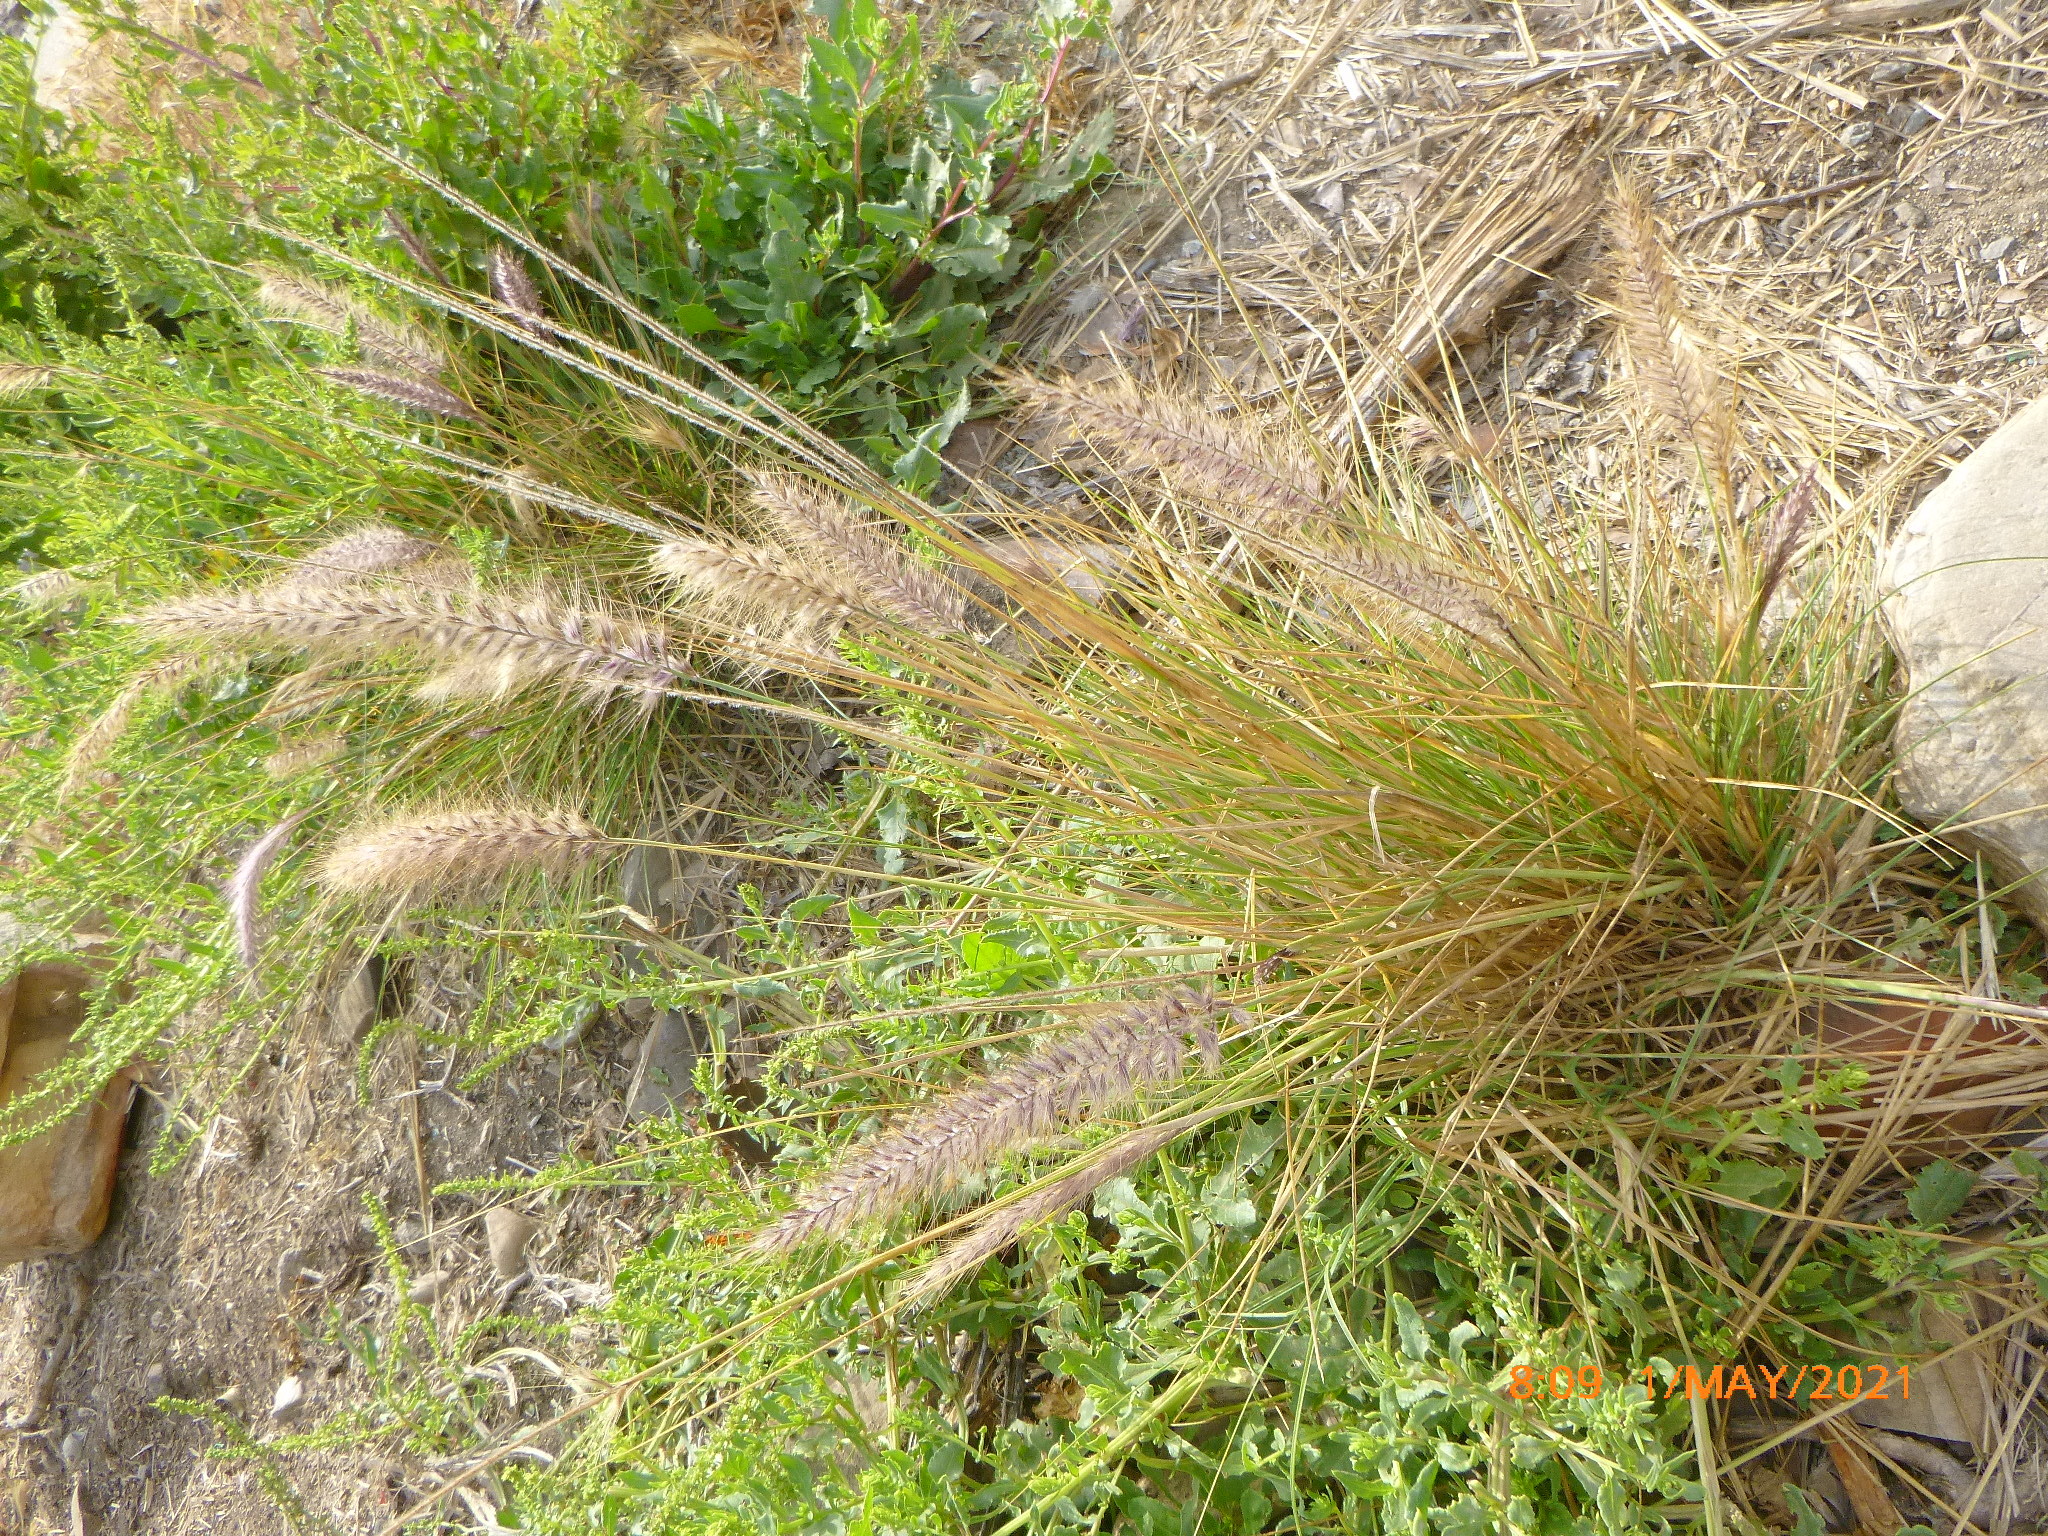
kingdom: Plantae
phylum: Tracheophyta
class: Liliopsida
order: Poales
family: Poaceae
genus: Cenchrus
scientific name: Cenchrus setaceus
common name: Crimson fountaingrass
